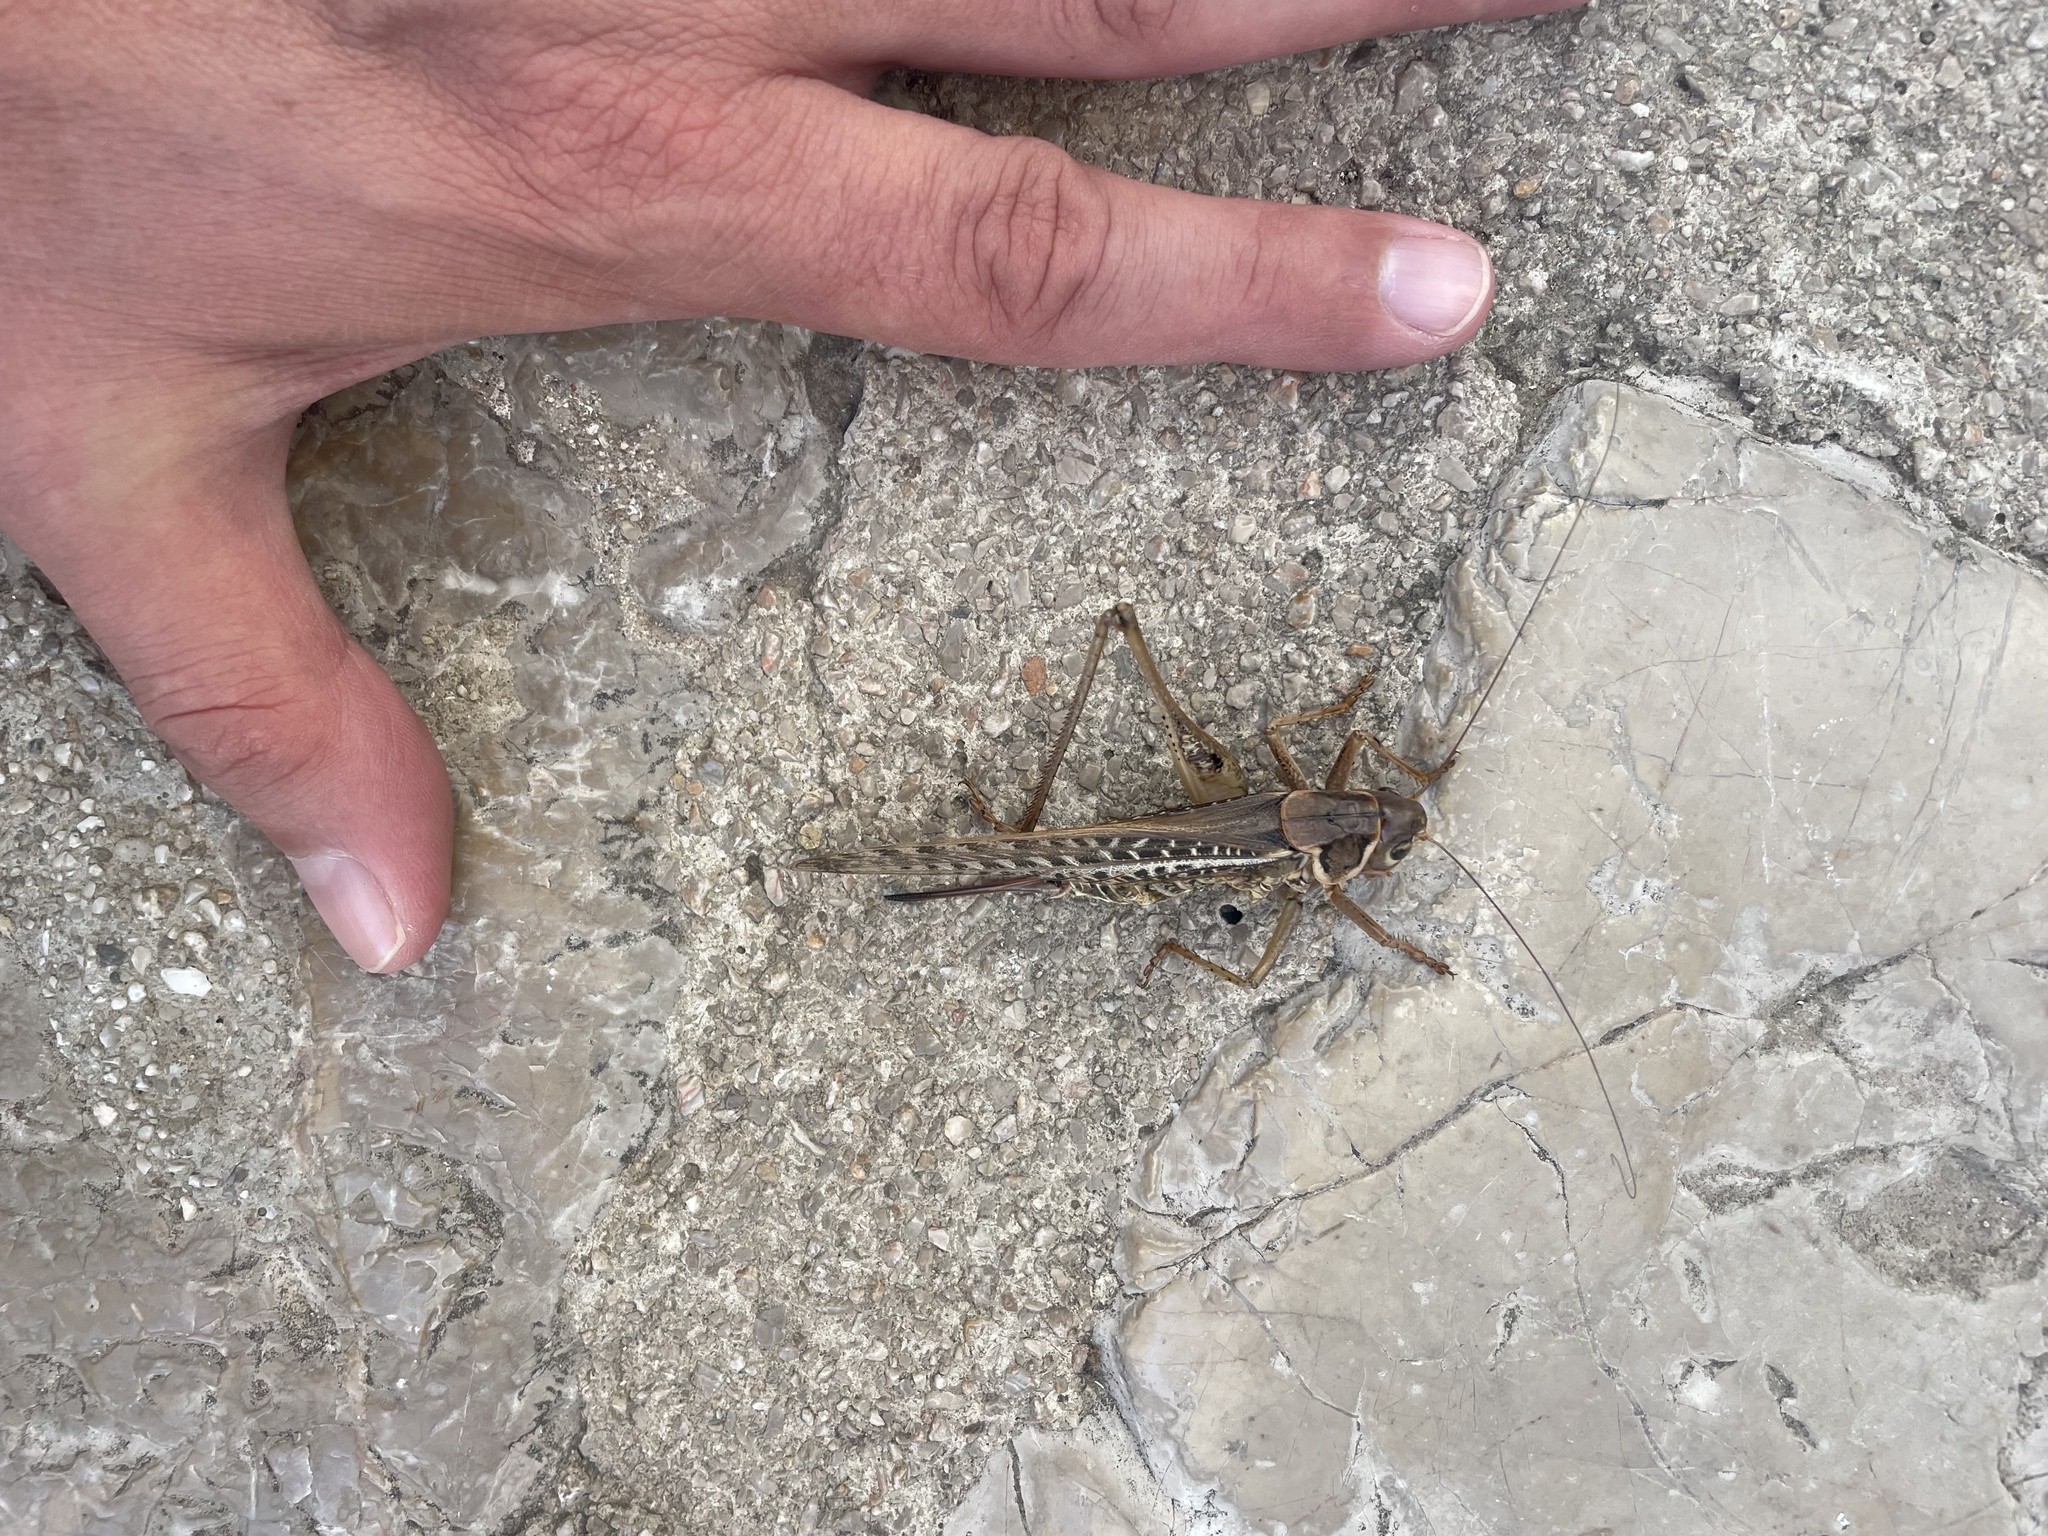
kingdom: Animalia
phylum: Arthropoda
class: Insecta
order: Orthoptera
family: Tettigoniidae
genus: Decticus
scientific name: Decticus albifrons
